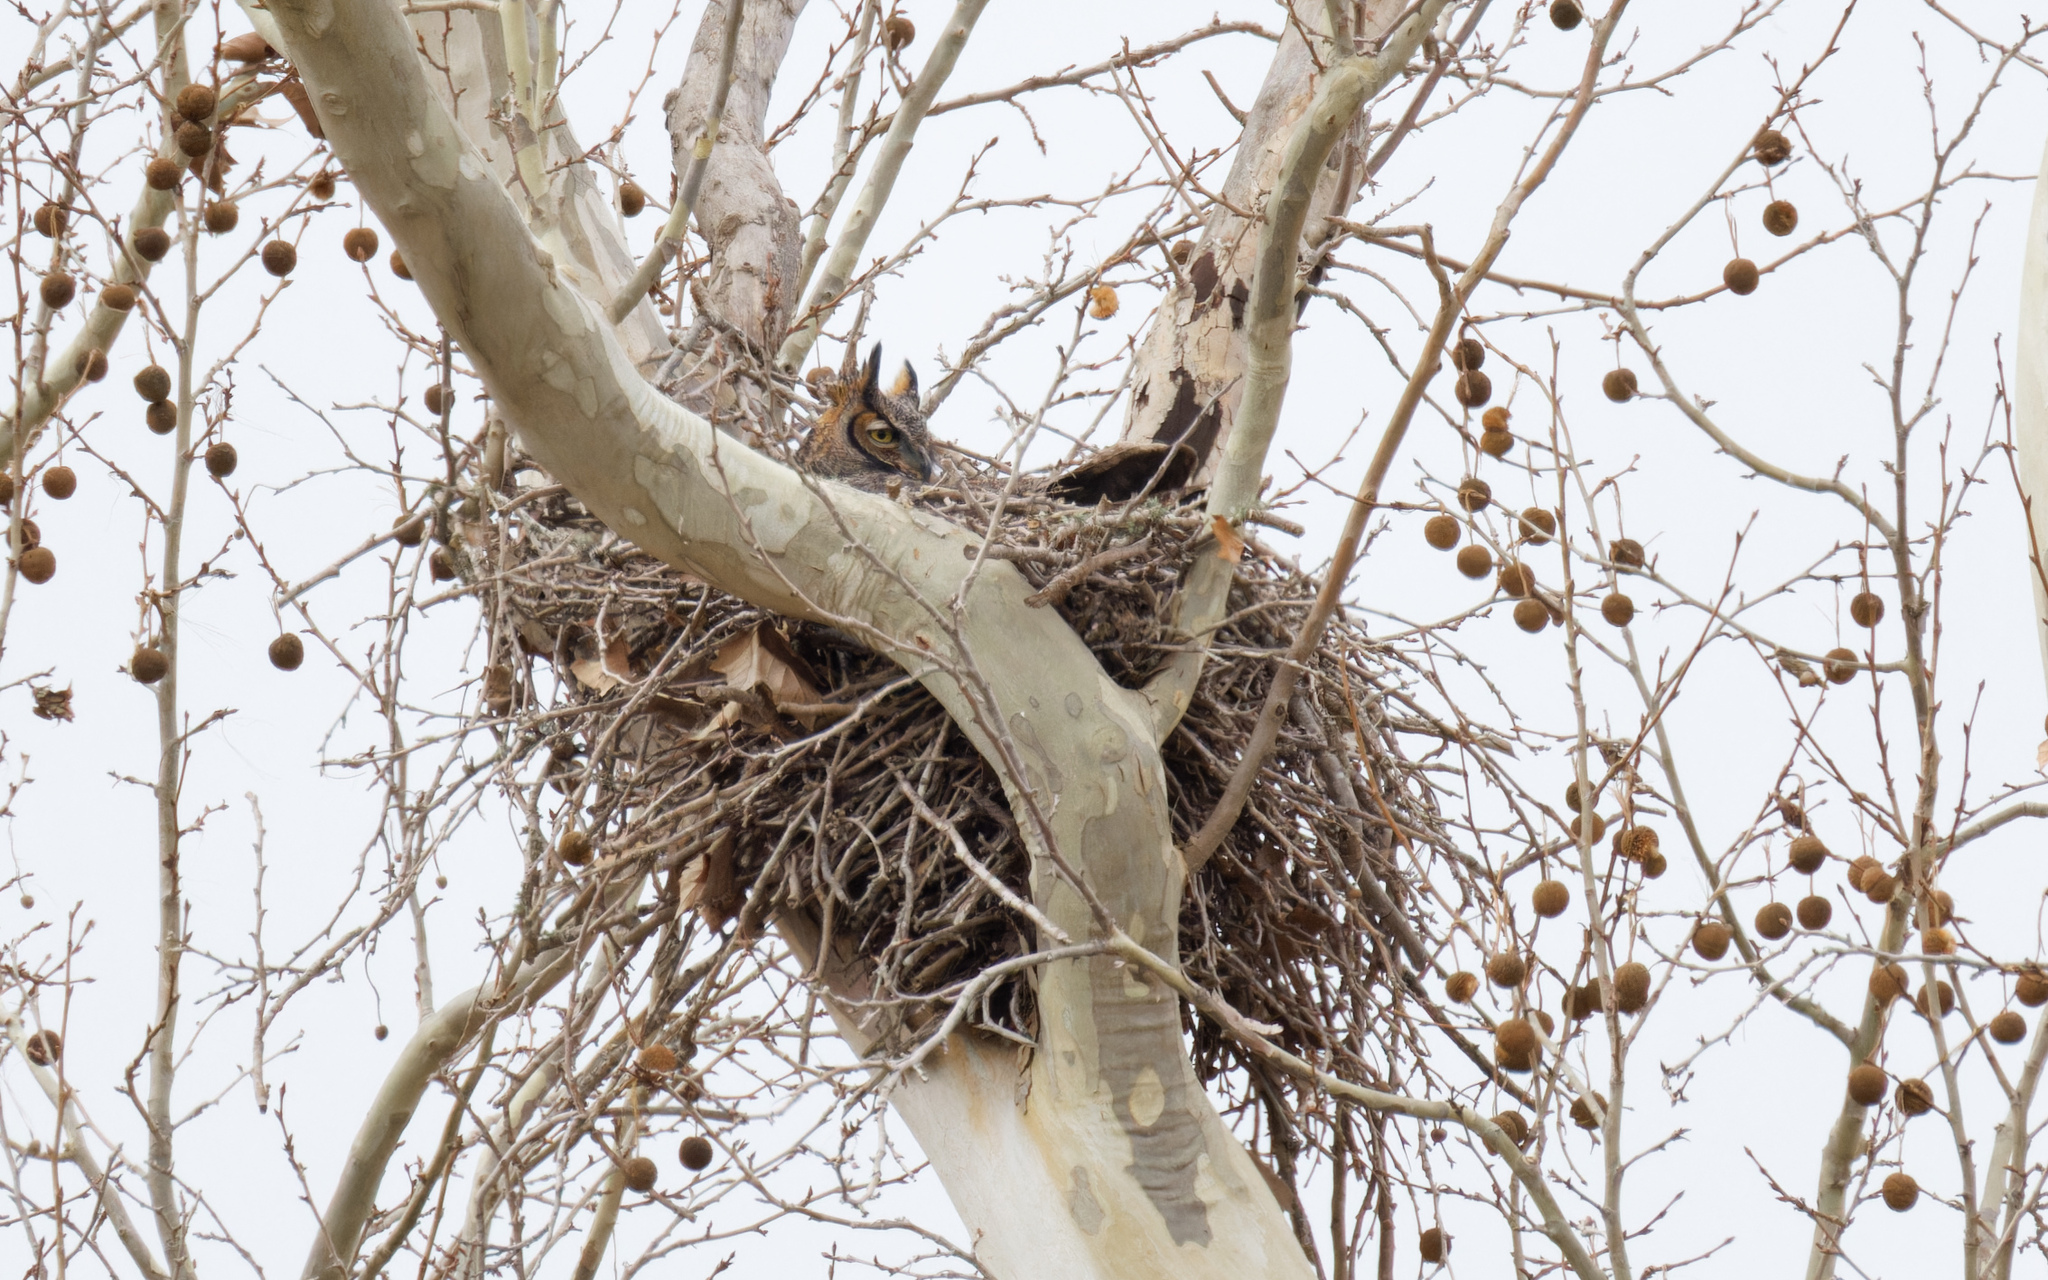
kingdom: Animalia
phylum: Chordata
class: Aves
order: Strigiformes
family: Strigidae
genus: Bubo
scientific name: Bubo virginianus
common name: Great horned owl
